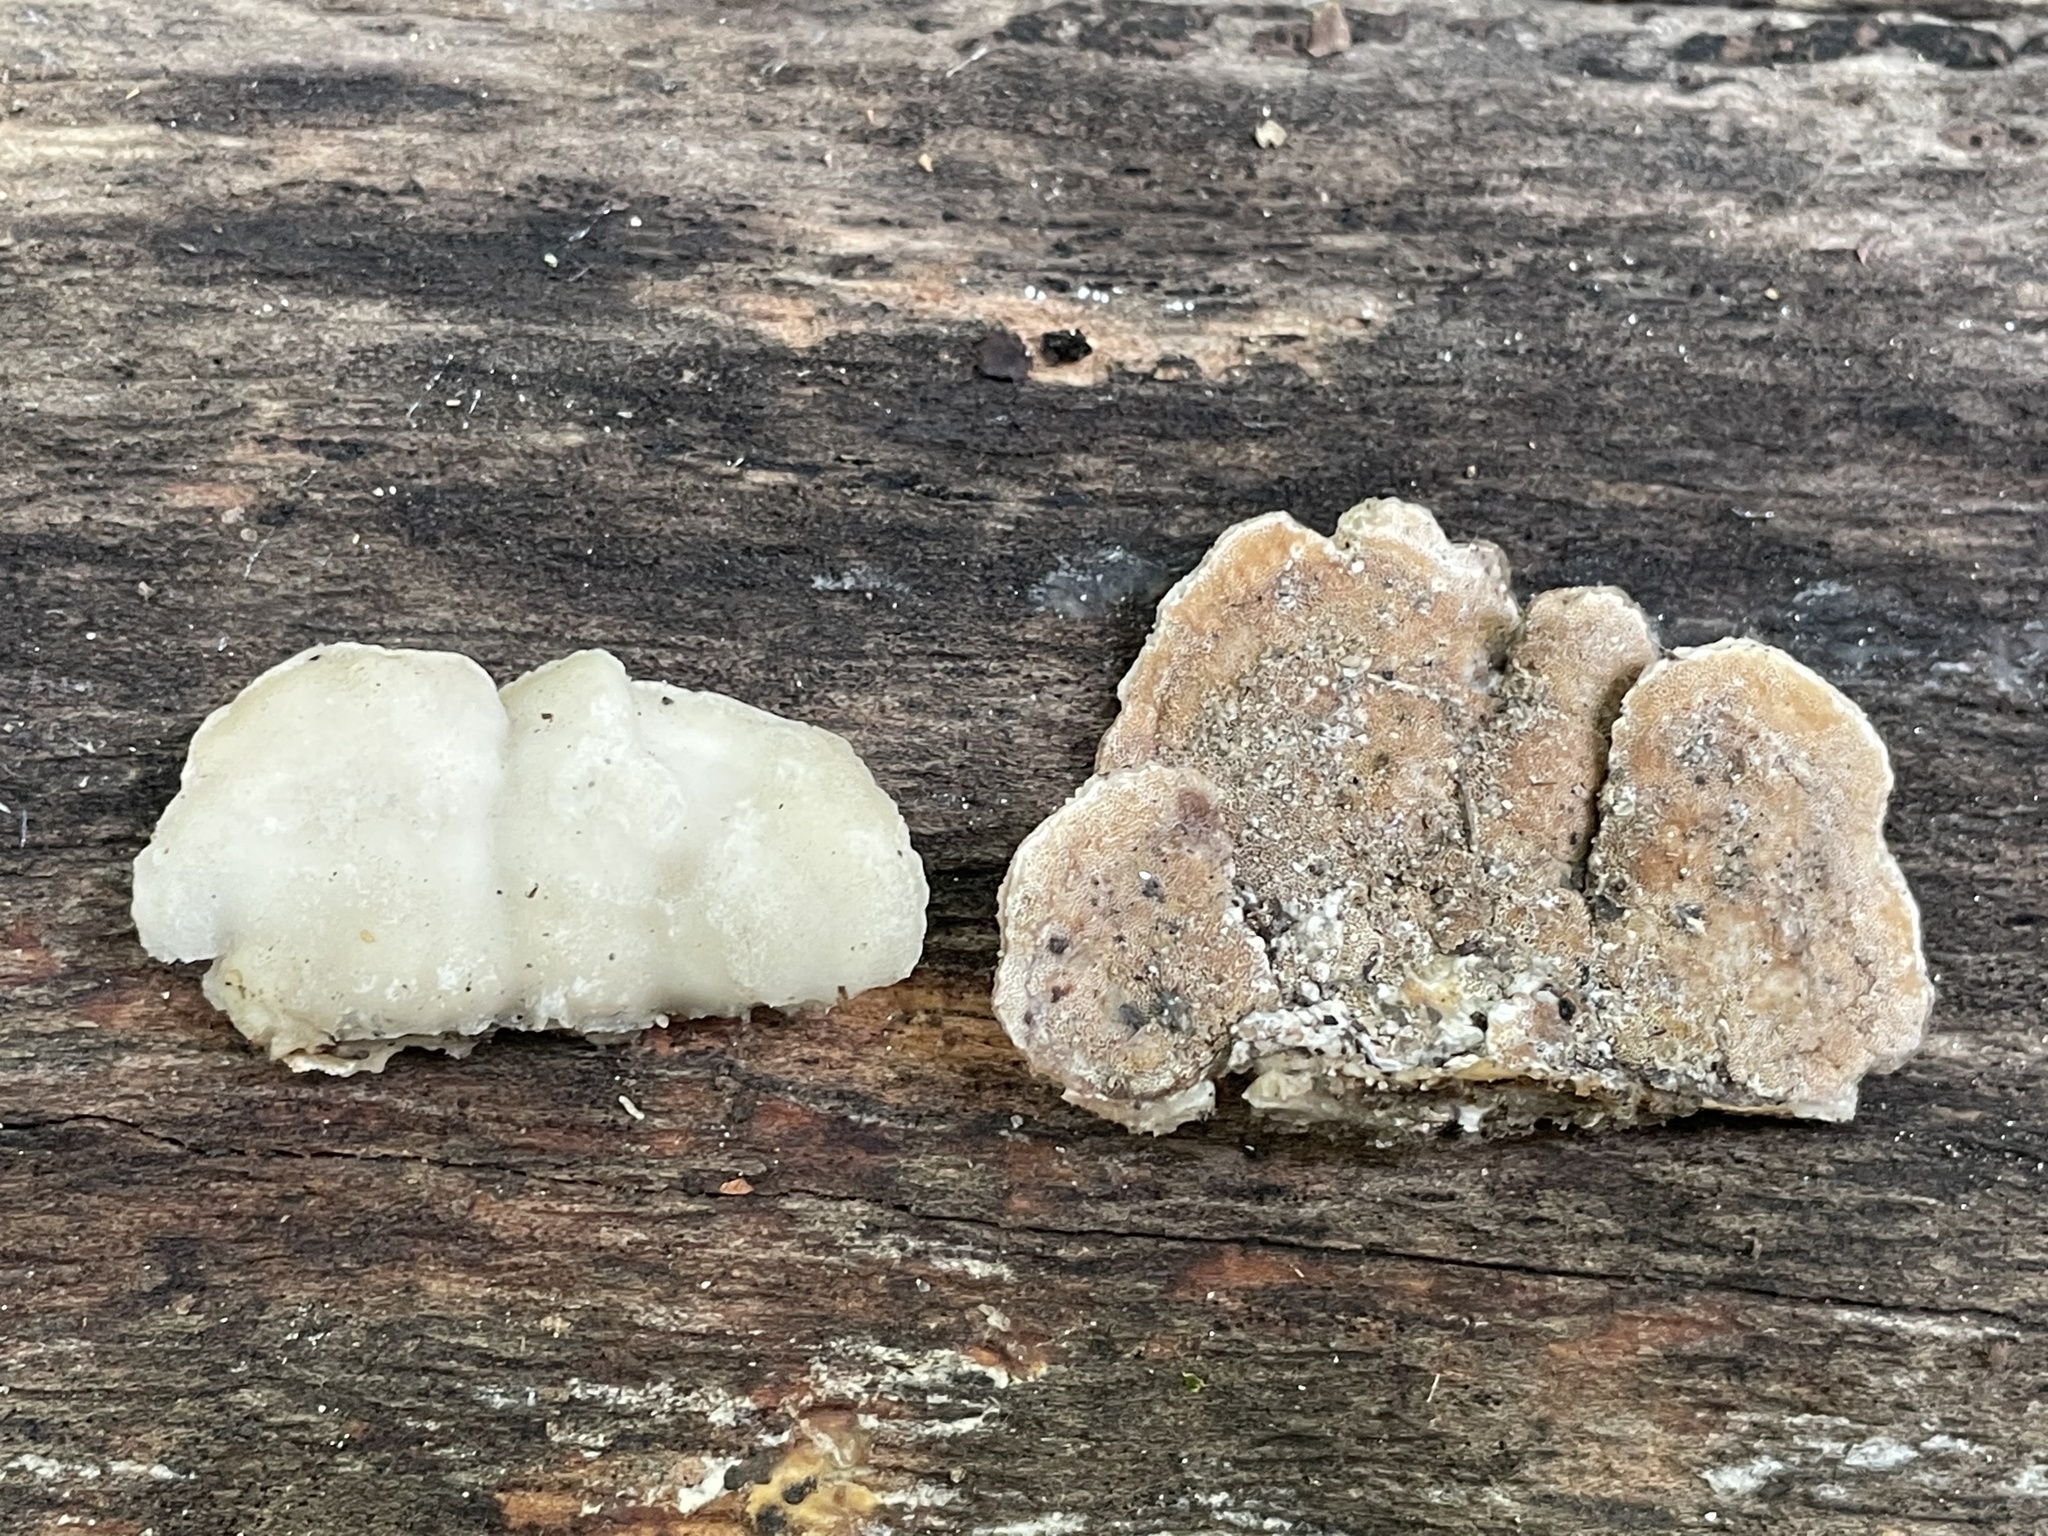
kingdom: Fungi
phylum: Basidiomycota
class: Agaricomycetes
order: Polyporales
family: Irpicaceae
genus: Vitreoporus
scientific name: Vitreoporus dichrous
